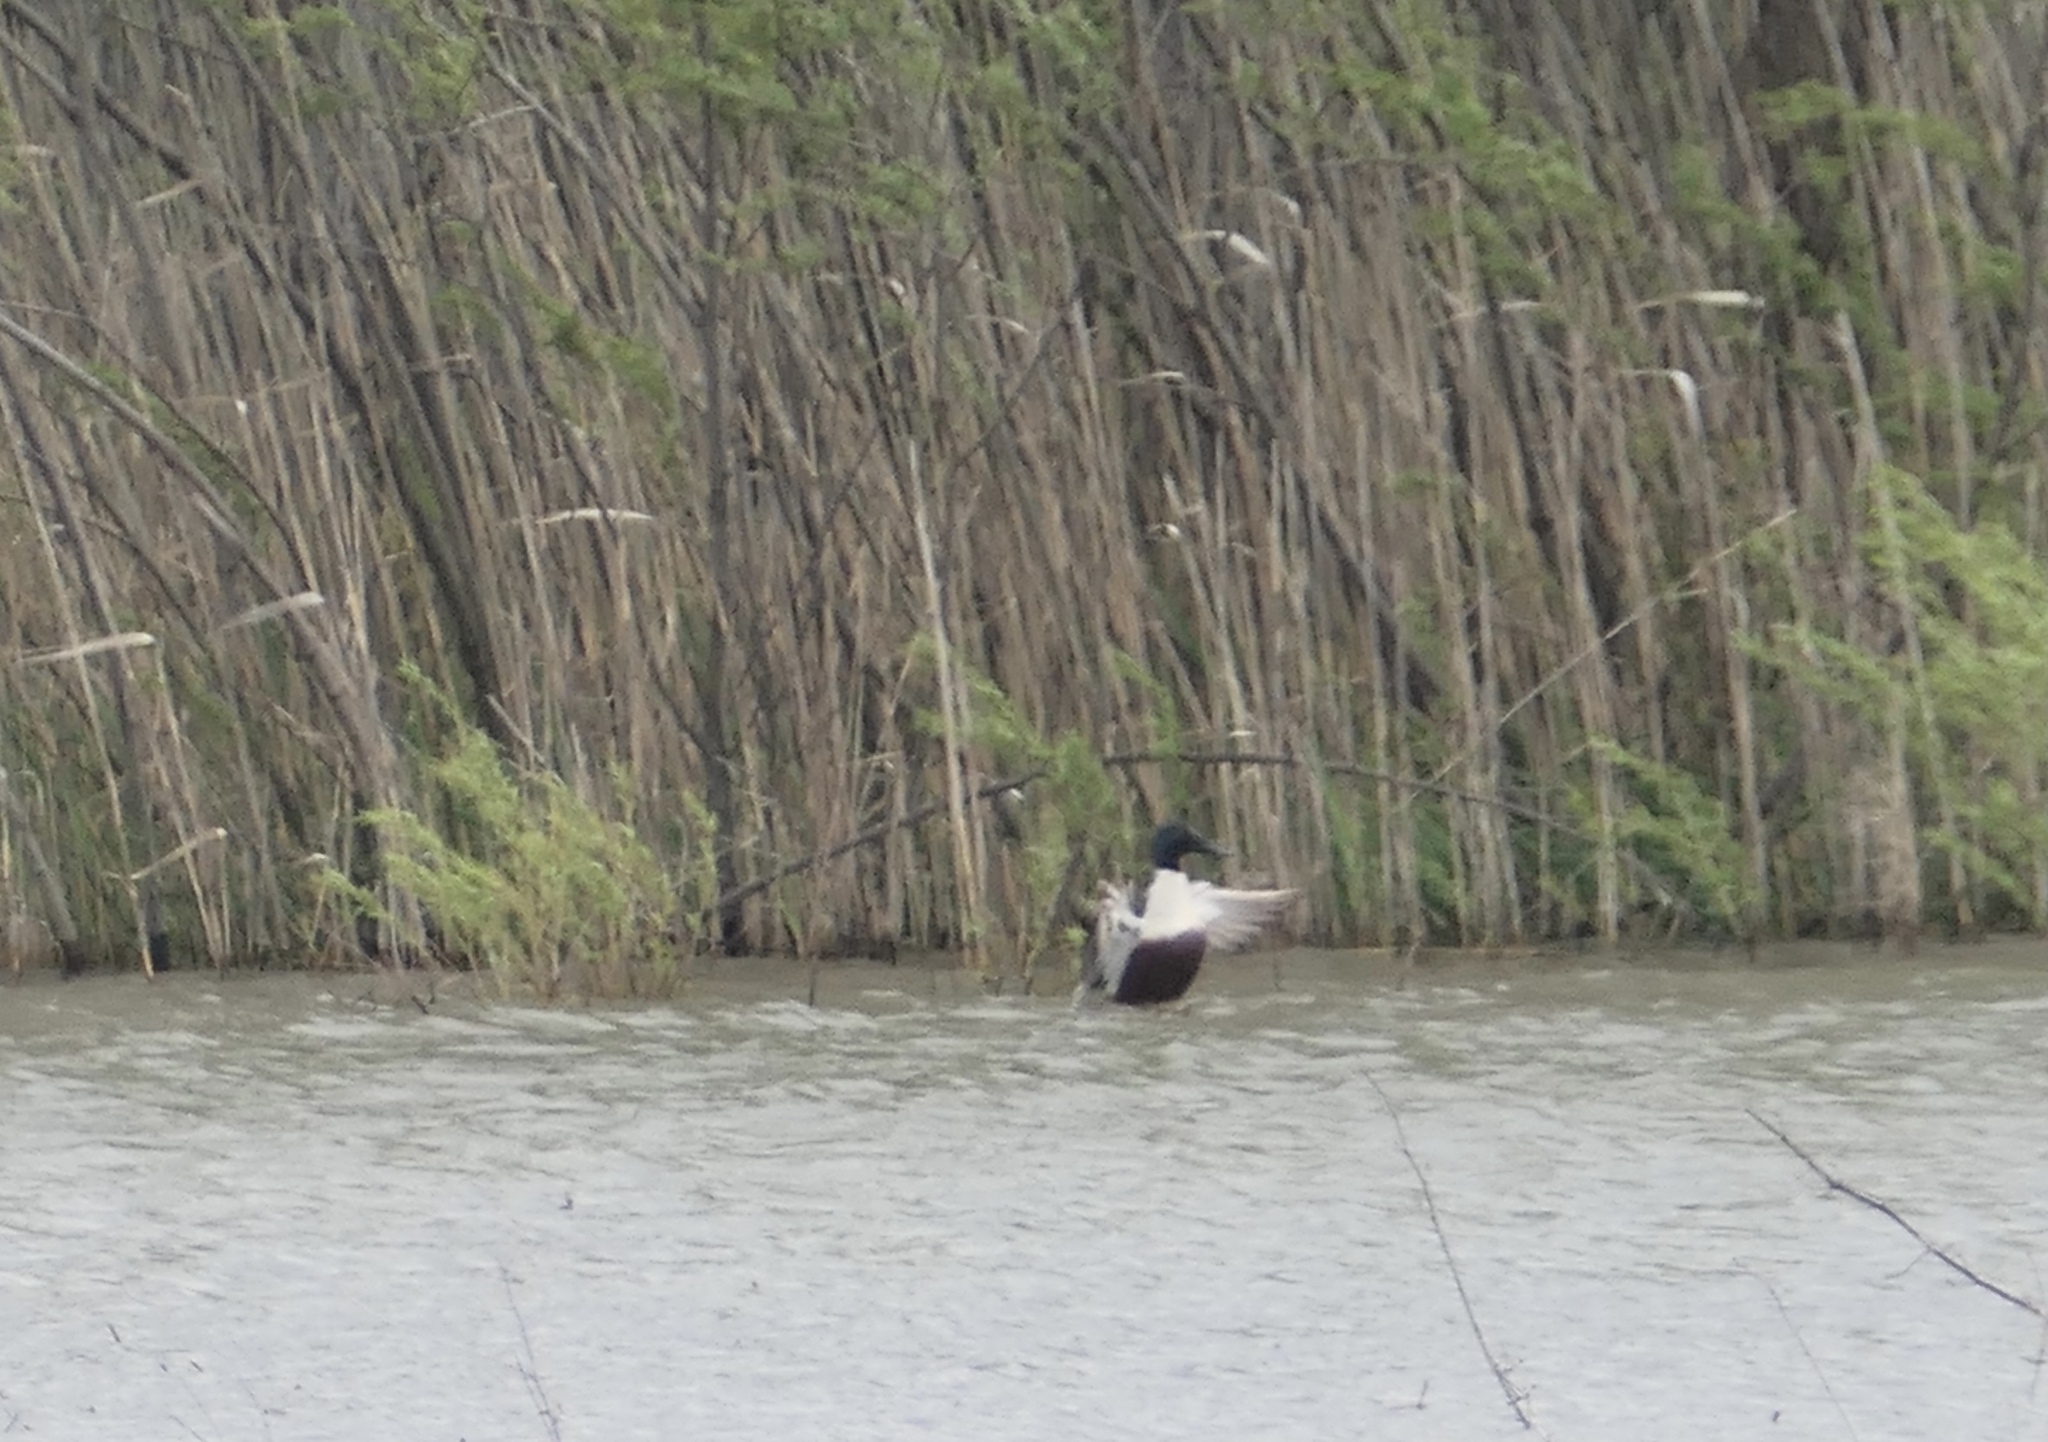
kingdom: Animalia
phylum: Chordata
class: Aves
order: Anseriformes
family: Anatidae
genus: Spatula
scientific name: Spatula clypeata
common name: Northern shoveler
